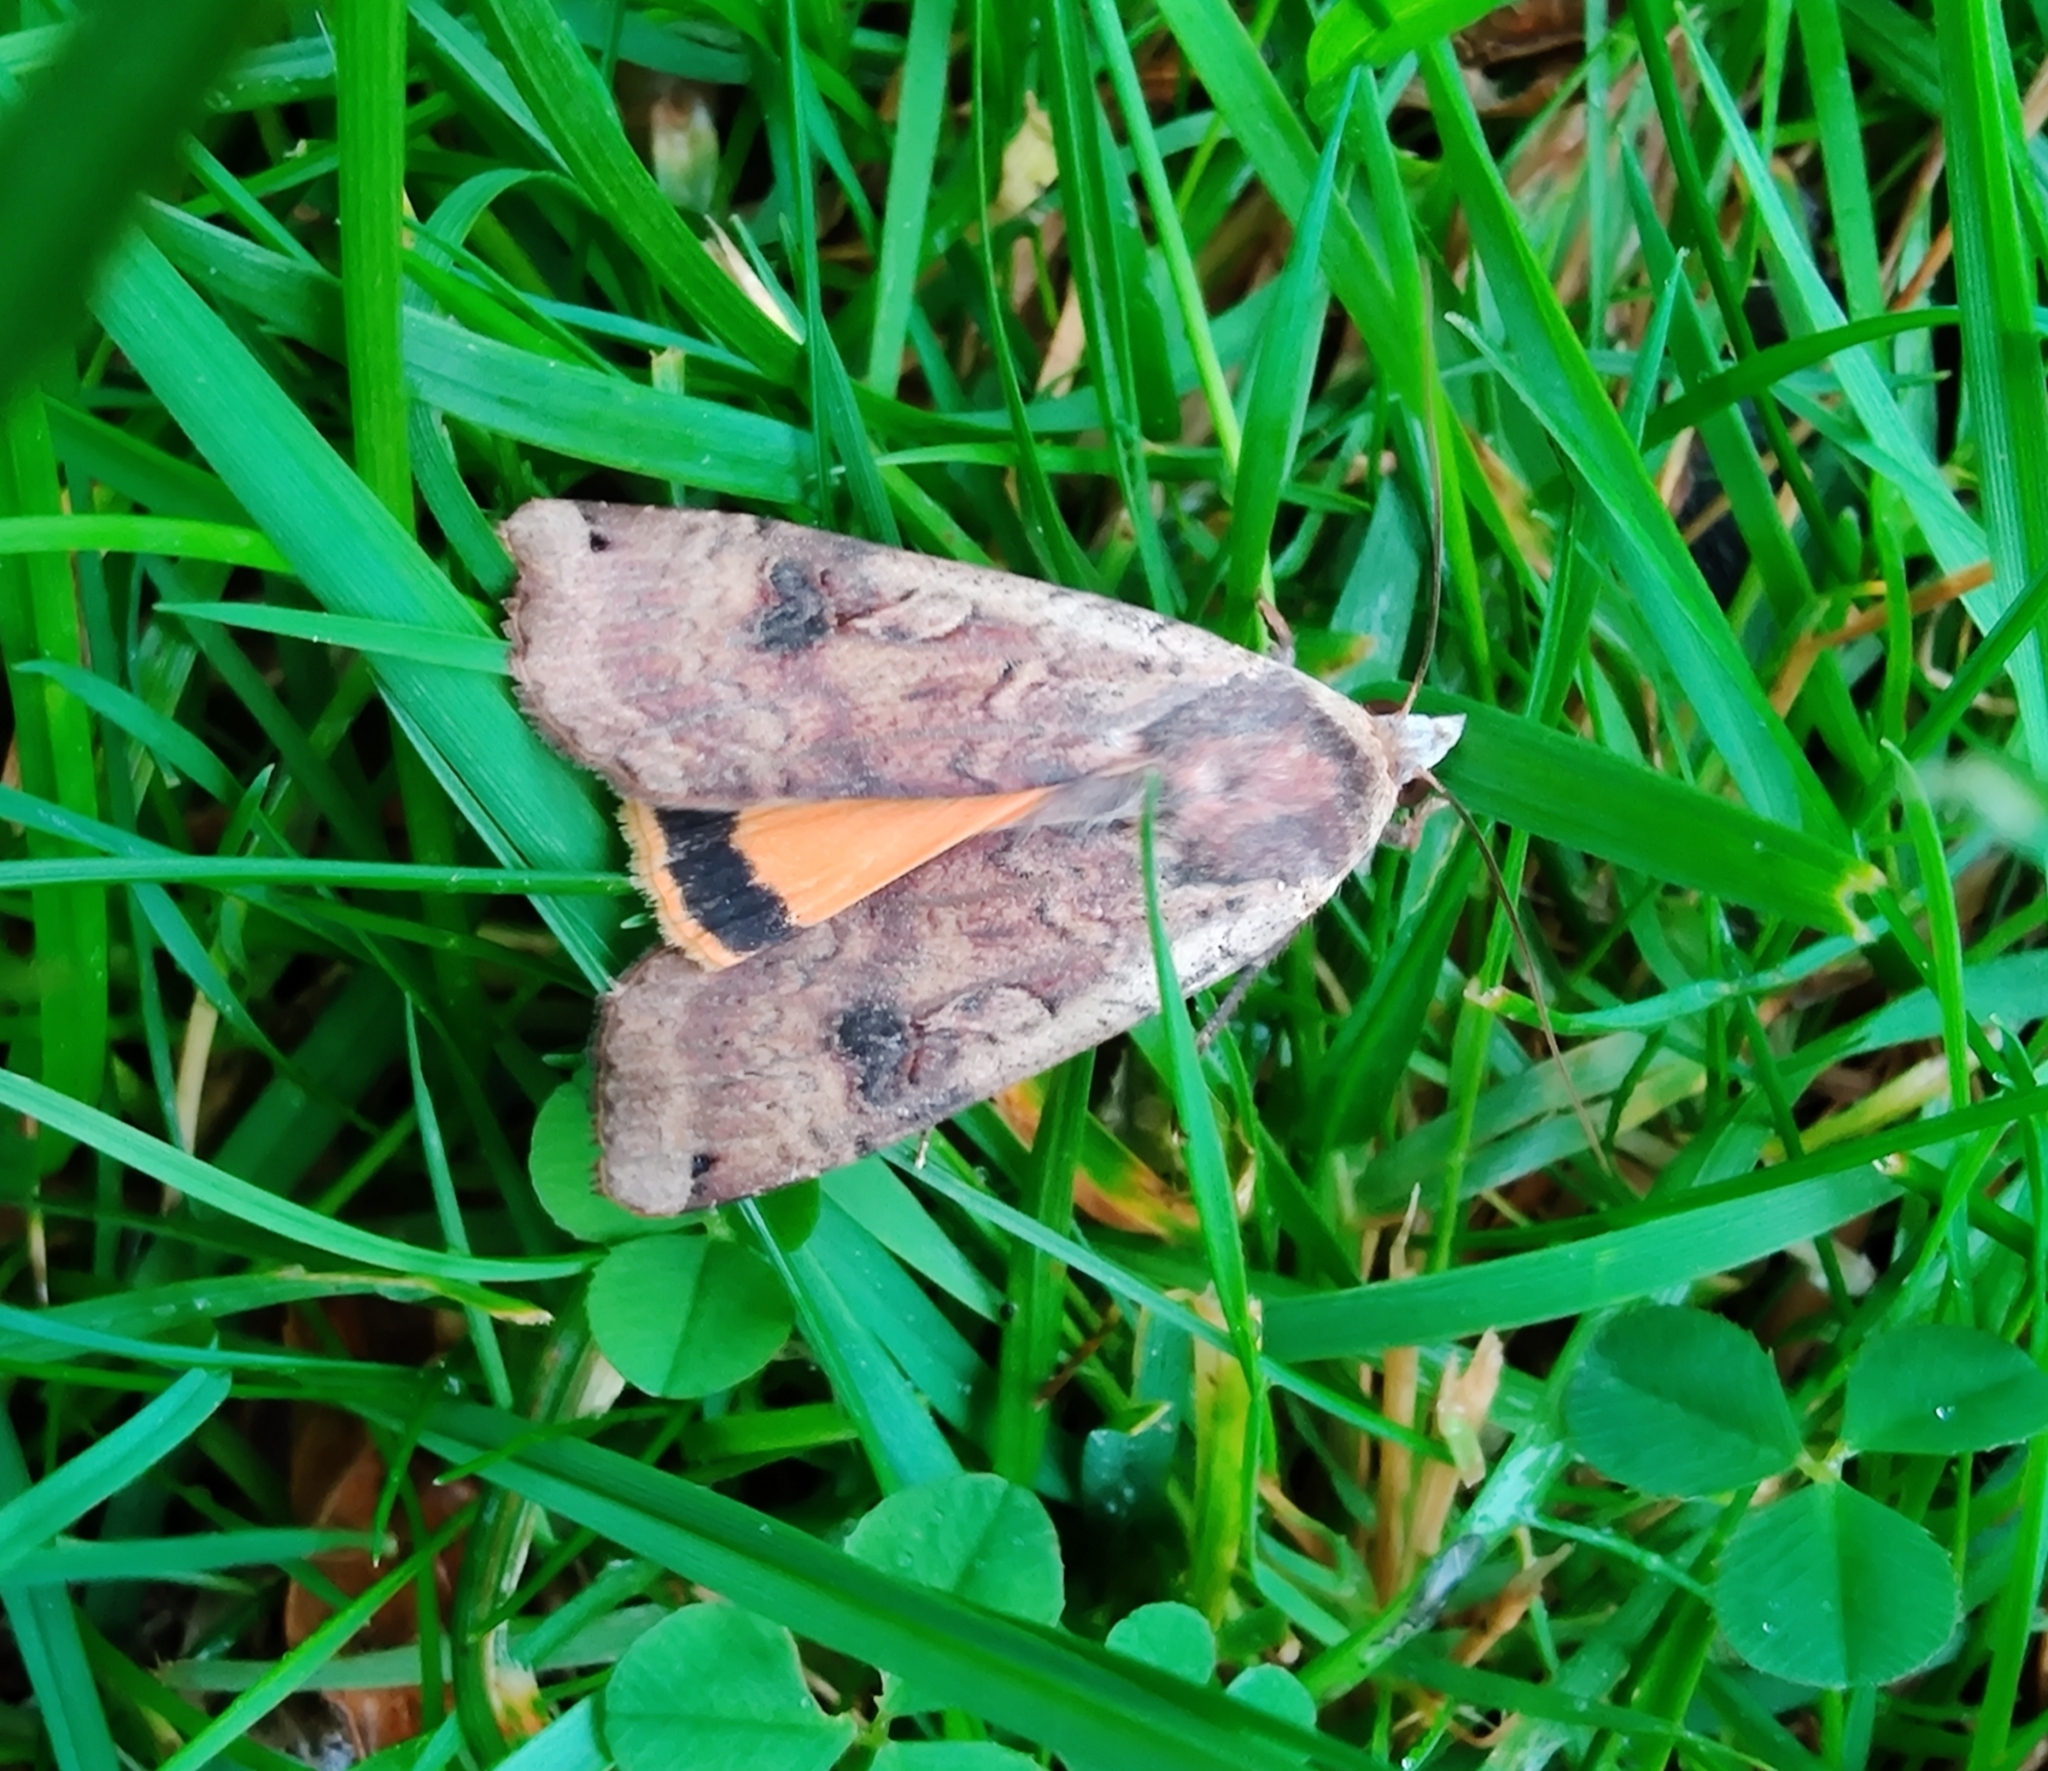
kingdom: Animalia
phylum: Arthropoda
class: Insecta
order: Lepidoptera
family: Noctuidae
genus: Noctua
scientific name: Noctua pronuba
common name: Large yellow underwing
